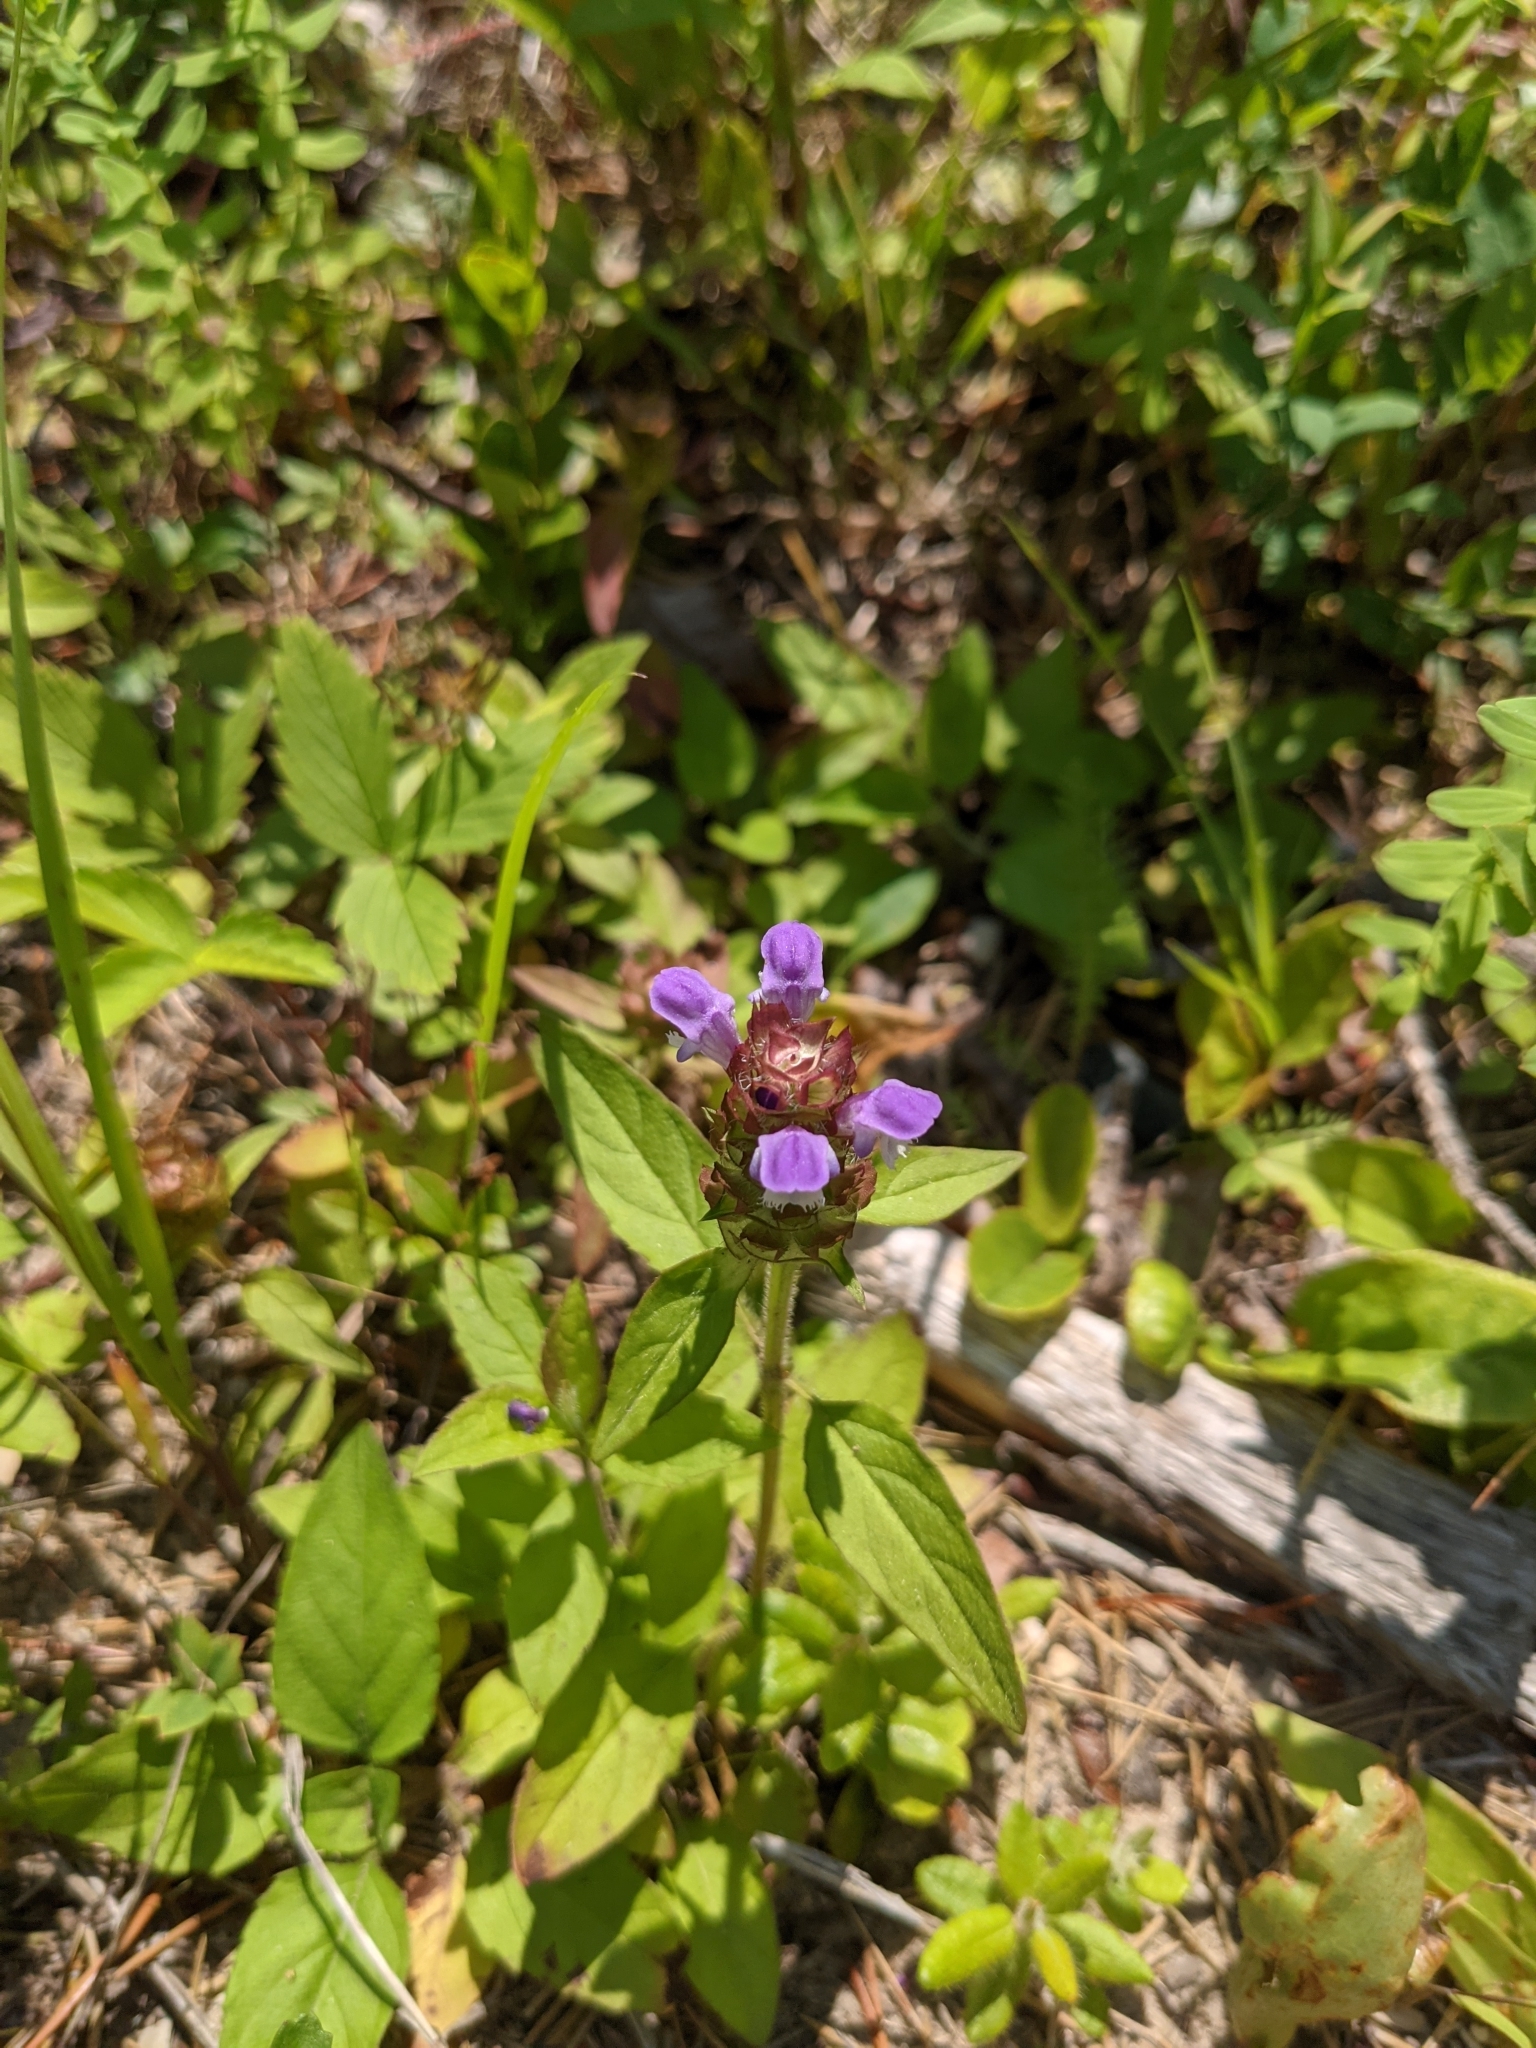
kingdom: Plantae
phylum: Tracheophyta
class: Magnoliopsida
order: Lamiales
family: Lamiaceae
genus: Prunella
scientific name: Prunella vulgaris
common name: Heal-all
